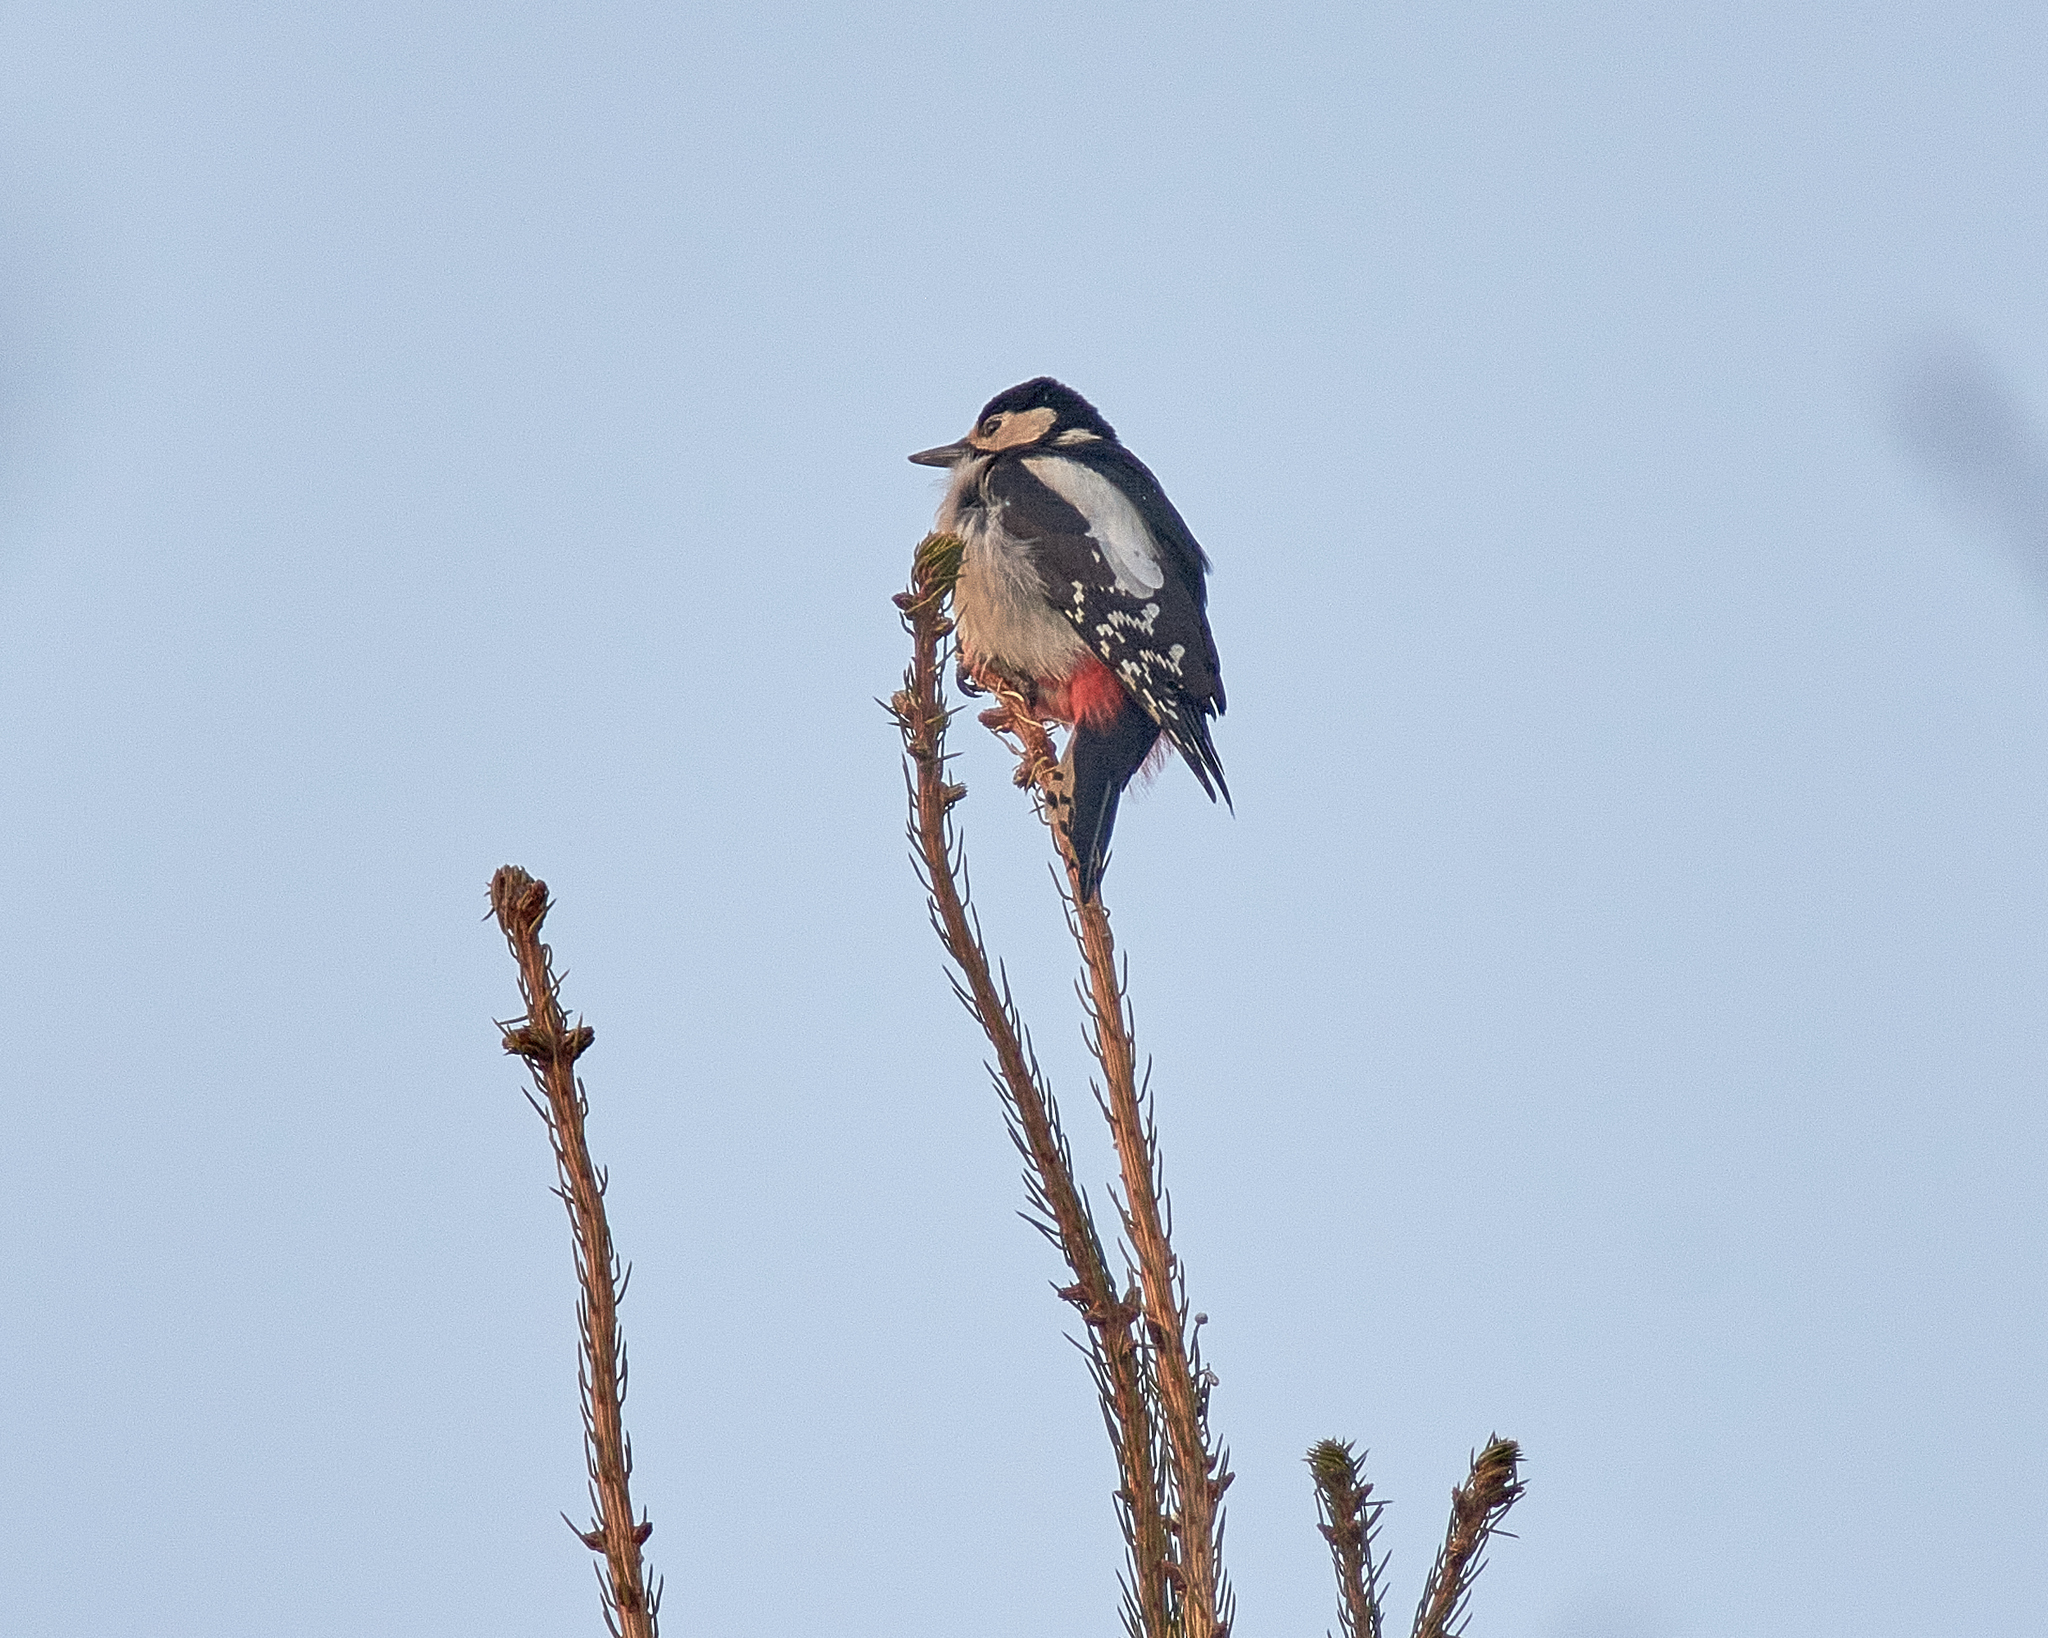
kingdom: Animalia
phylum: Chordata
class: Aves
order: Piciformes
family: Picidae
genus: Dendrocopos
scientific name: Dendrocopos major
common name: Great spotted woodpecker
